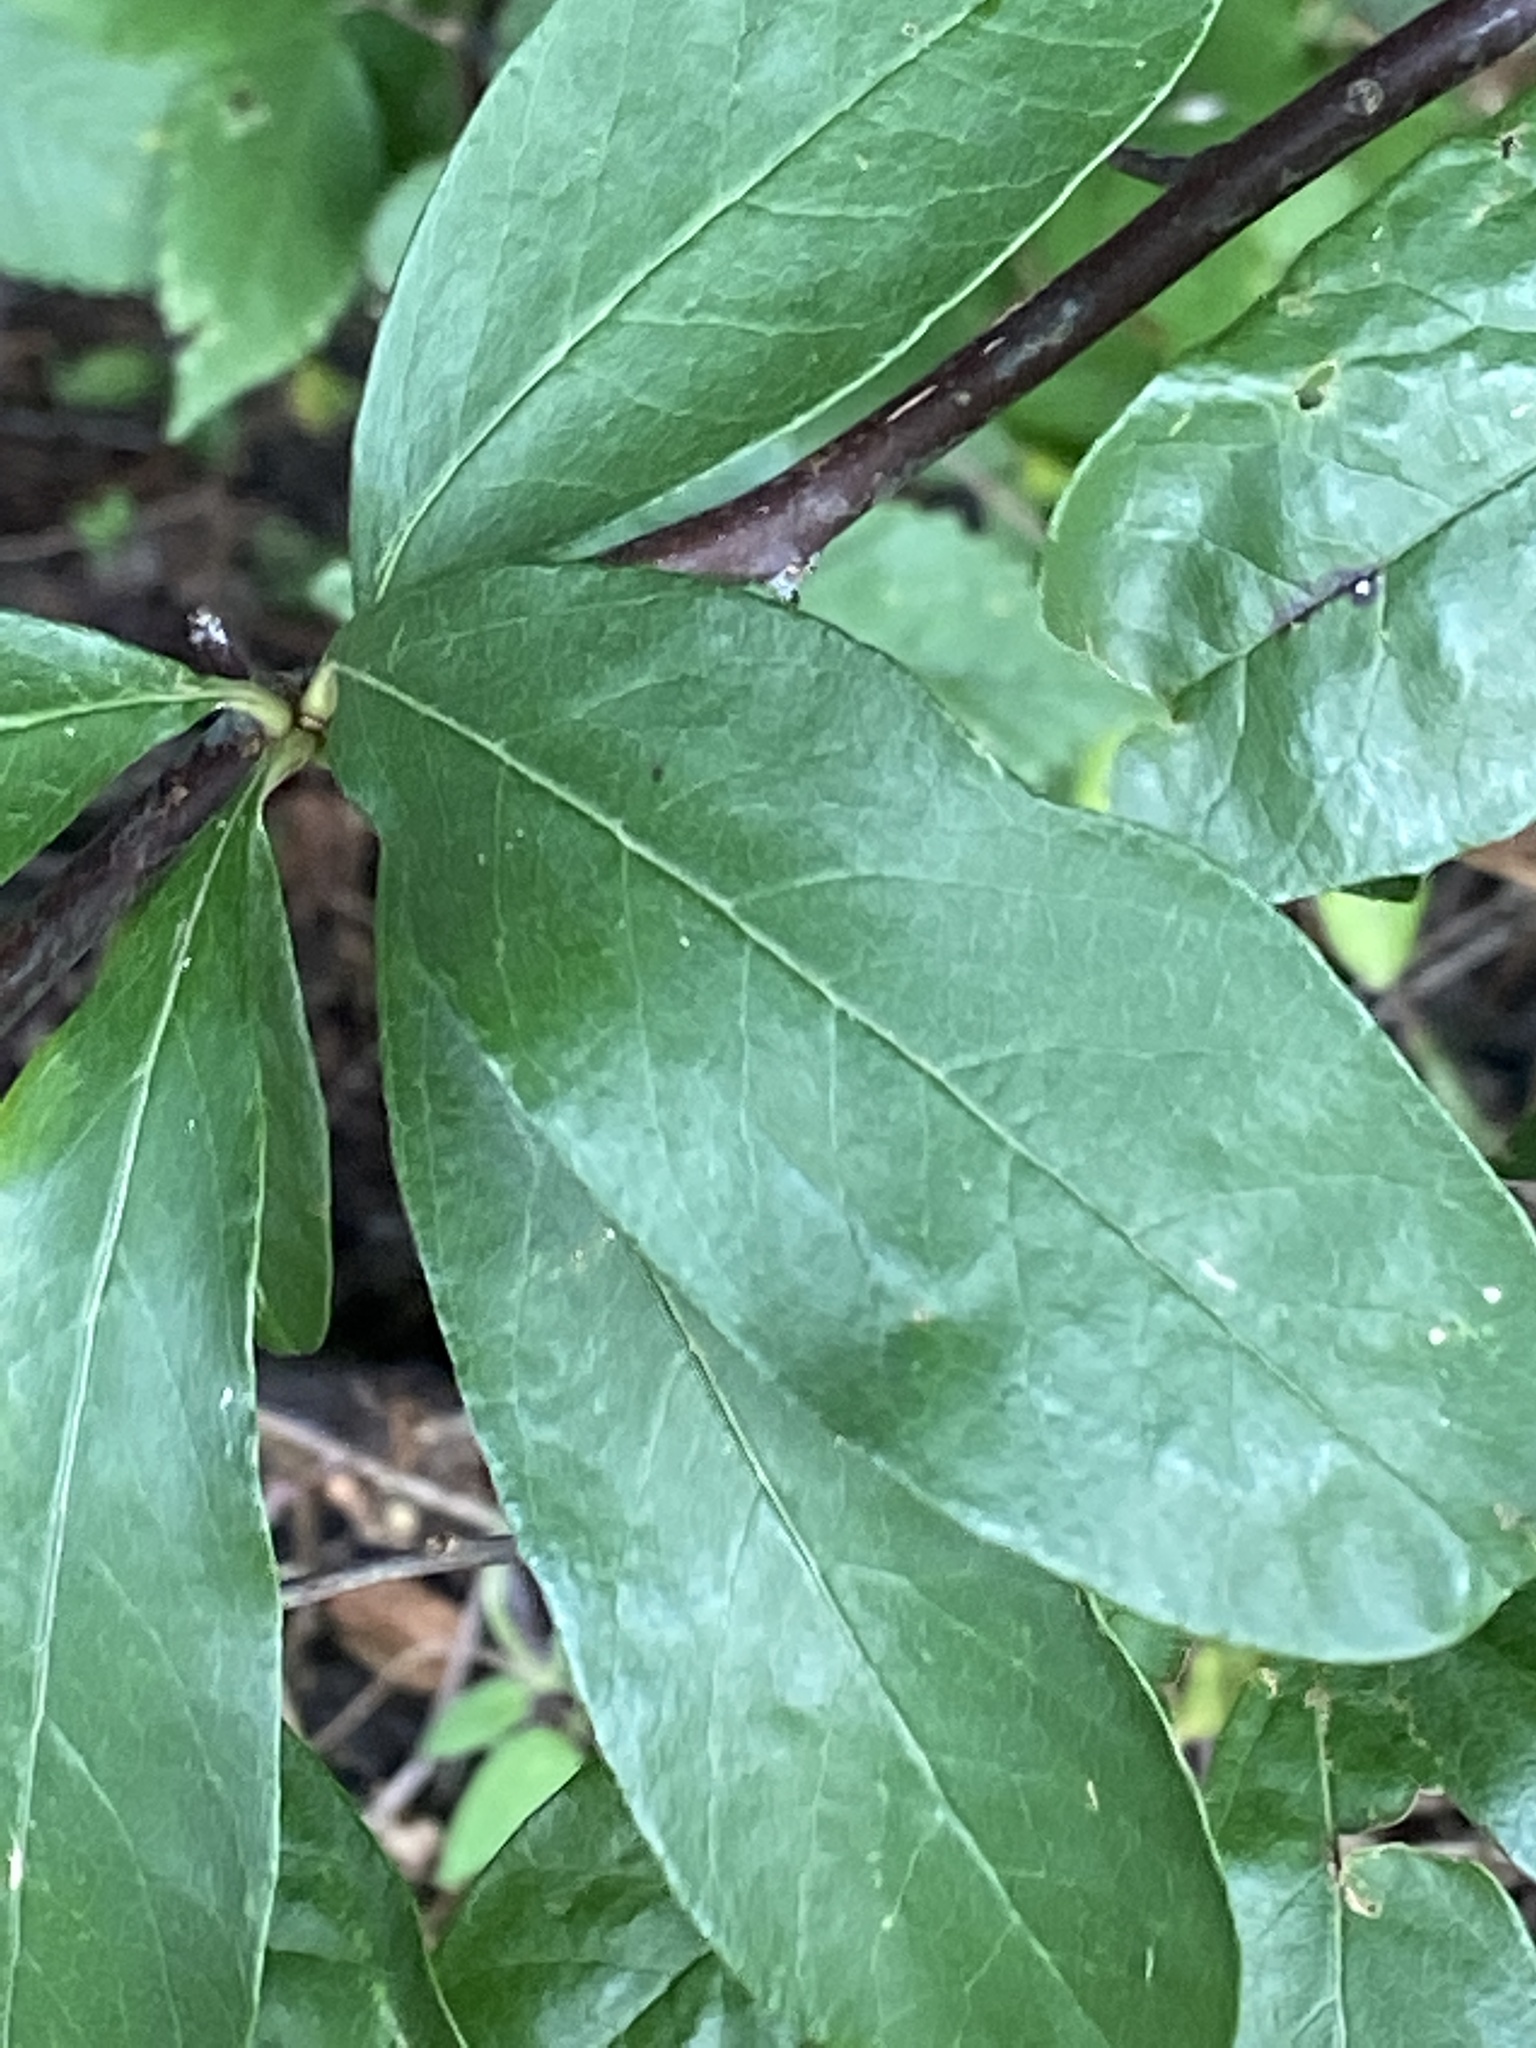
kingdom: Plantae
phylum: Tracheophyta
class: Magnoliopsida
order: Ericales
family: Sapotaceae
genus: Sideroxylon
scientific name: Sideroxylon lanuginosum
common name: Chittamwood
